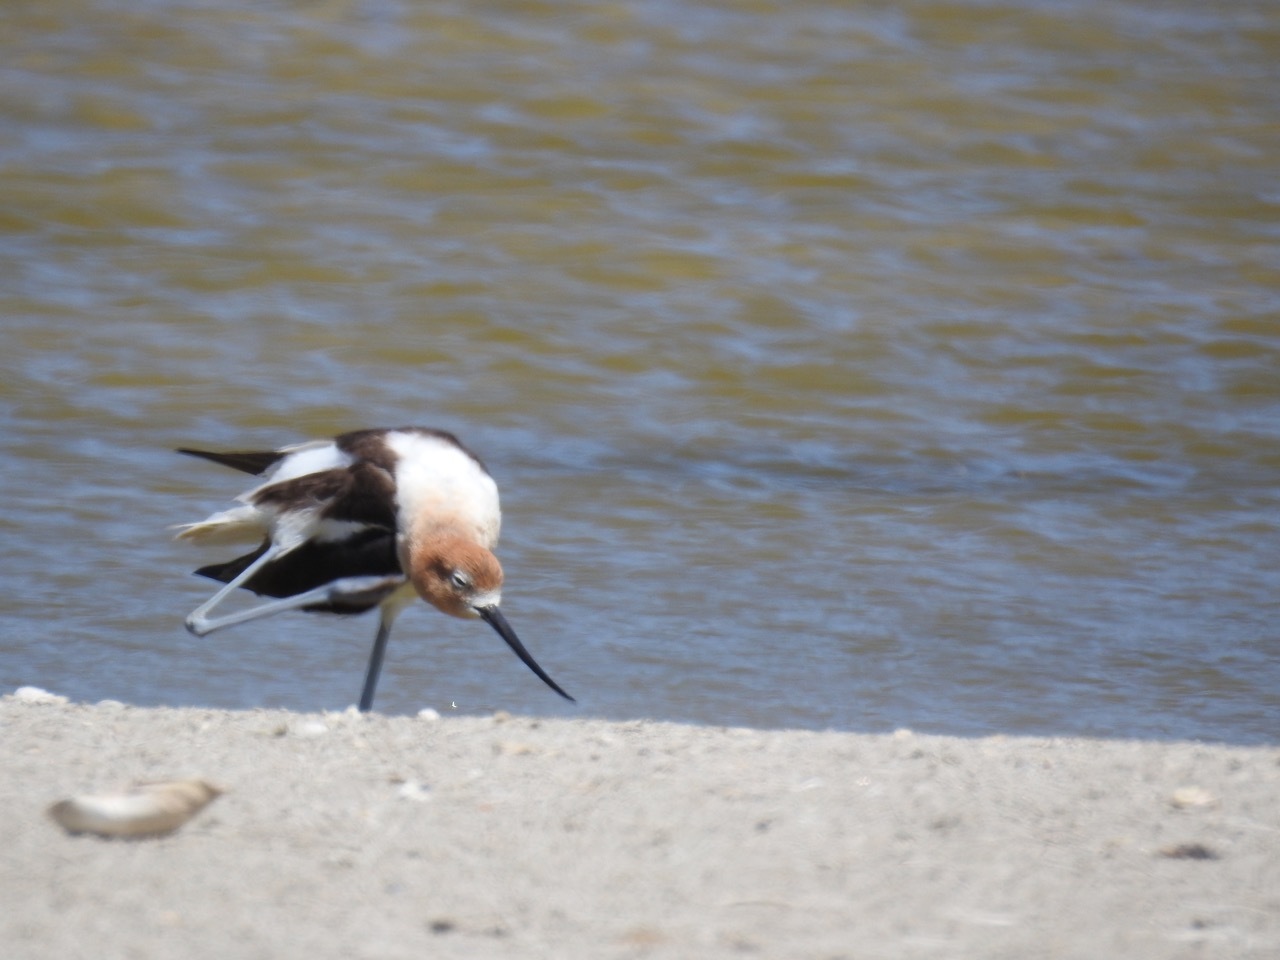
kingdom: Animalia
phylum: Chordata
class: Aves
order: Charadriiformes
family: Recurvirostridae
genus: Recurvirostra
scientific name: Recurvirostra americana
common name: American avocet
